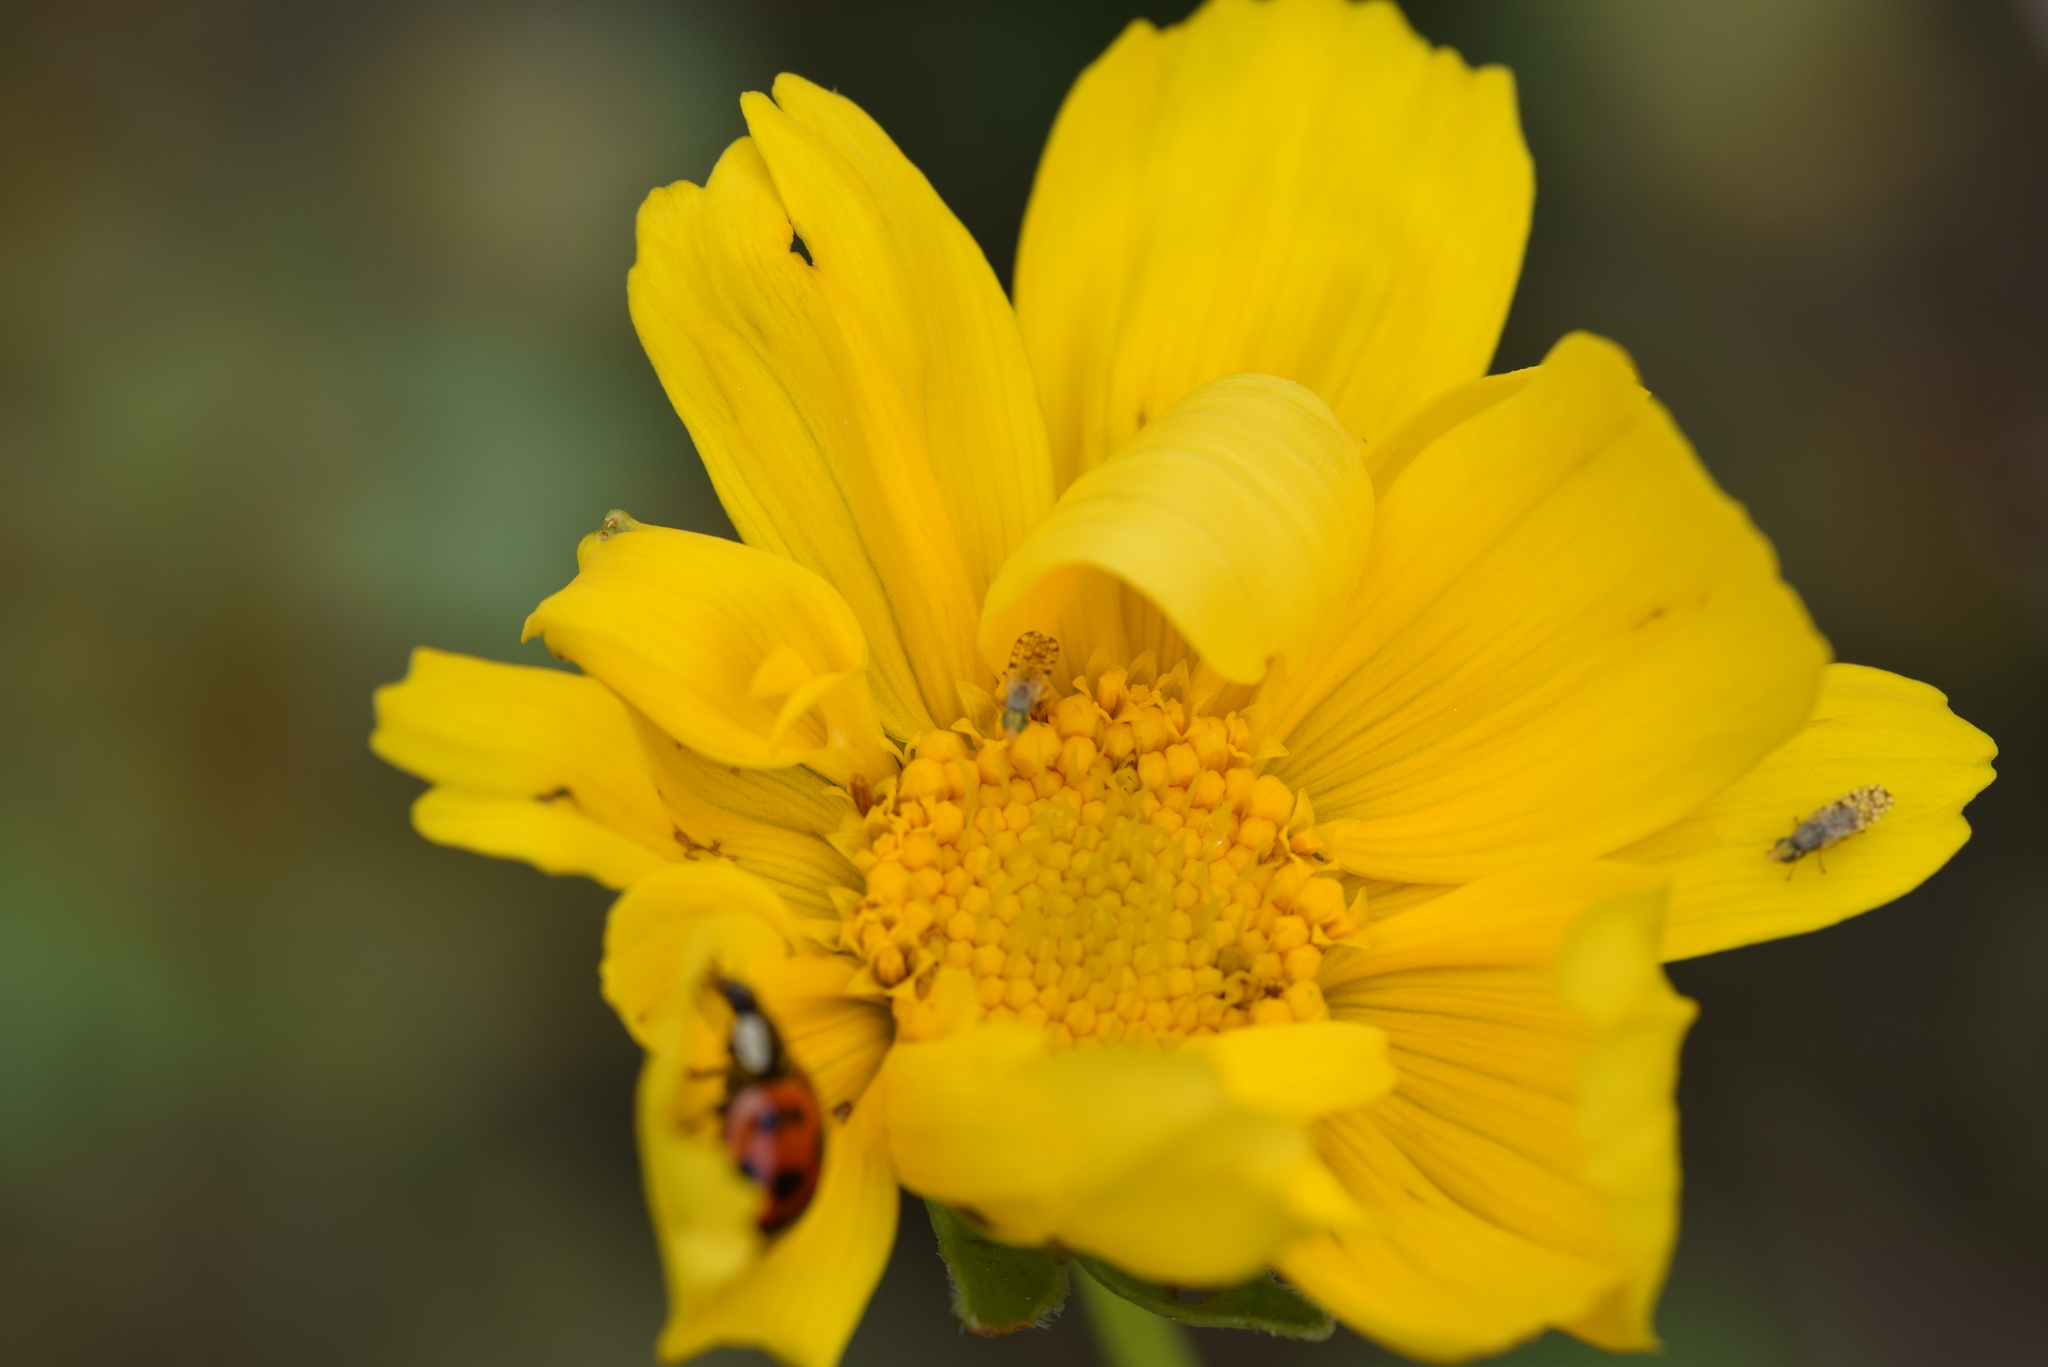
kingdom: Plantae
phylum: Tracheophyta
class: Magnoliopsida
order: Asterales
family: Asteraceae
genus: Coreopsis
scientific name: Coreopsis lanceolata
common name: Garden coreopsis
